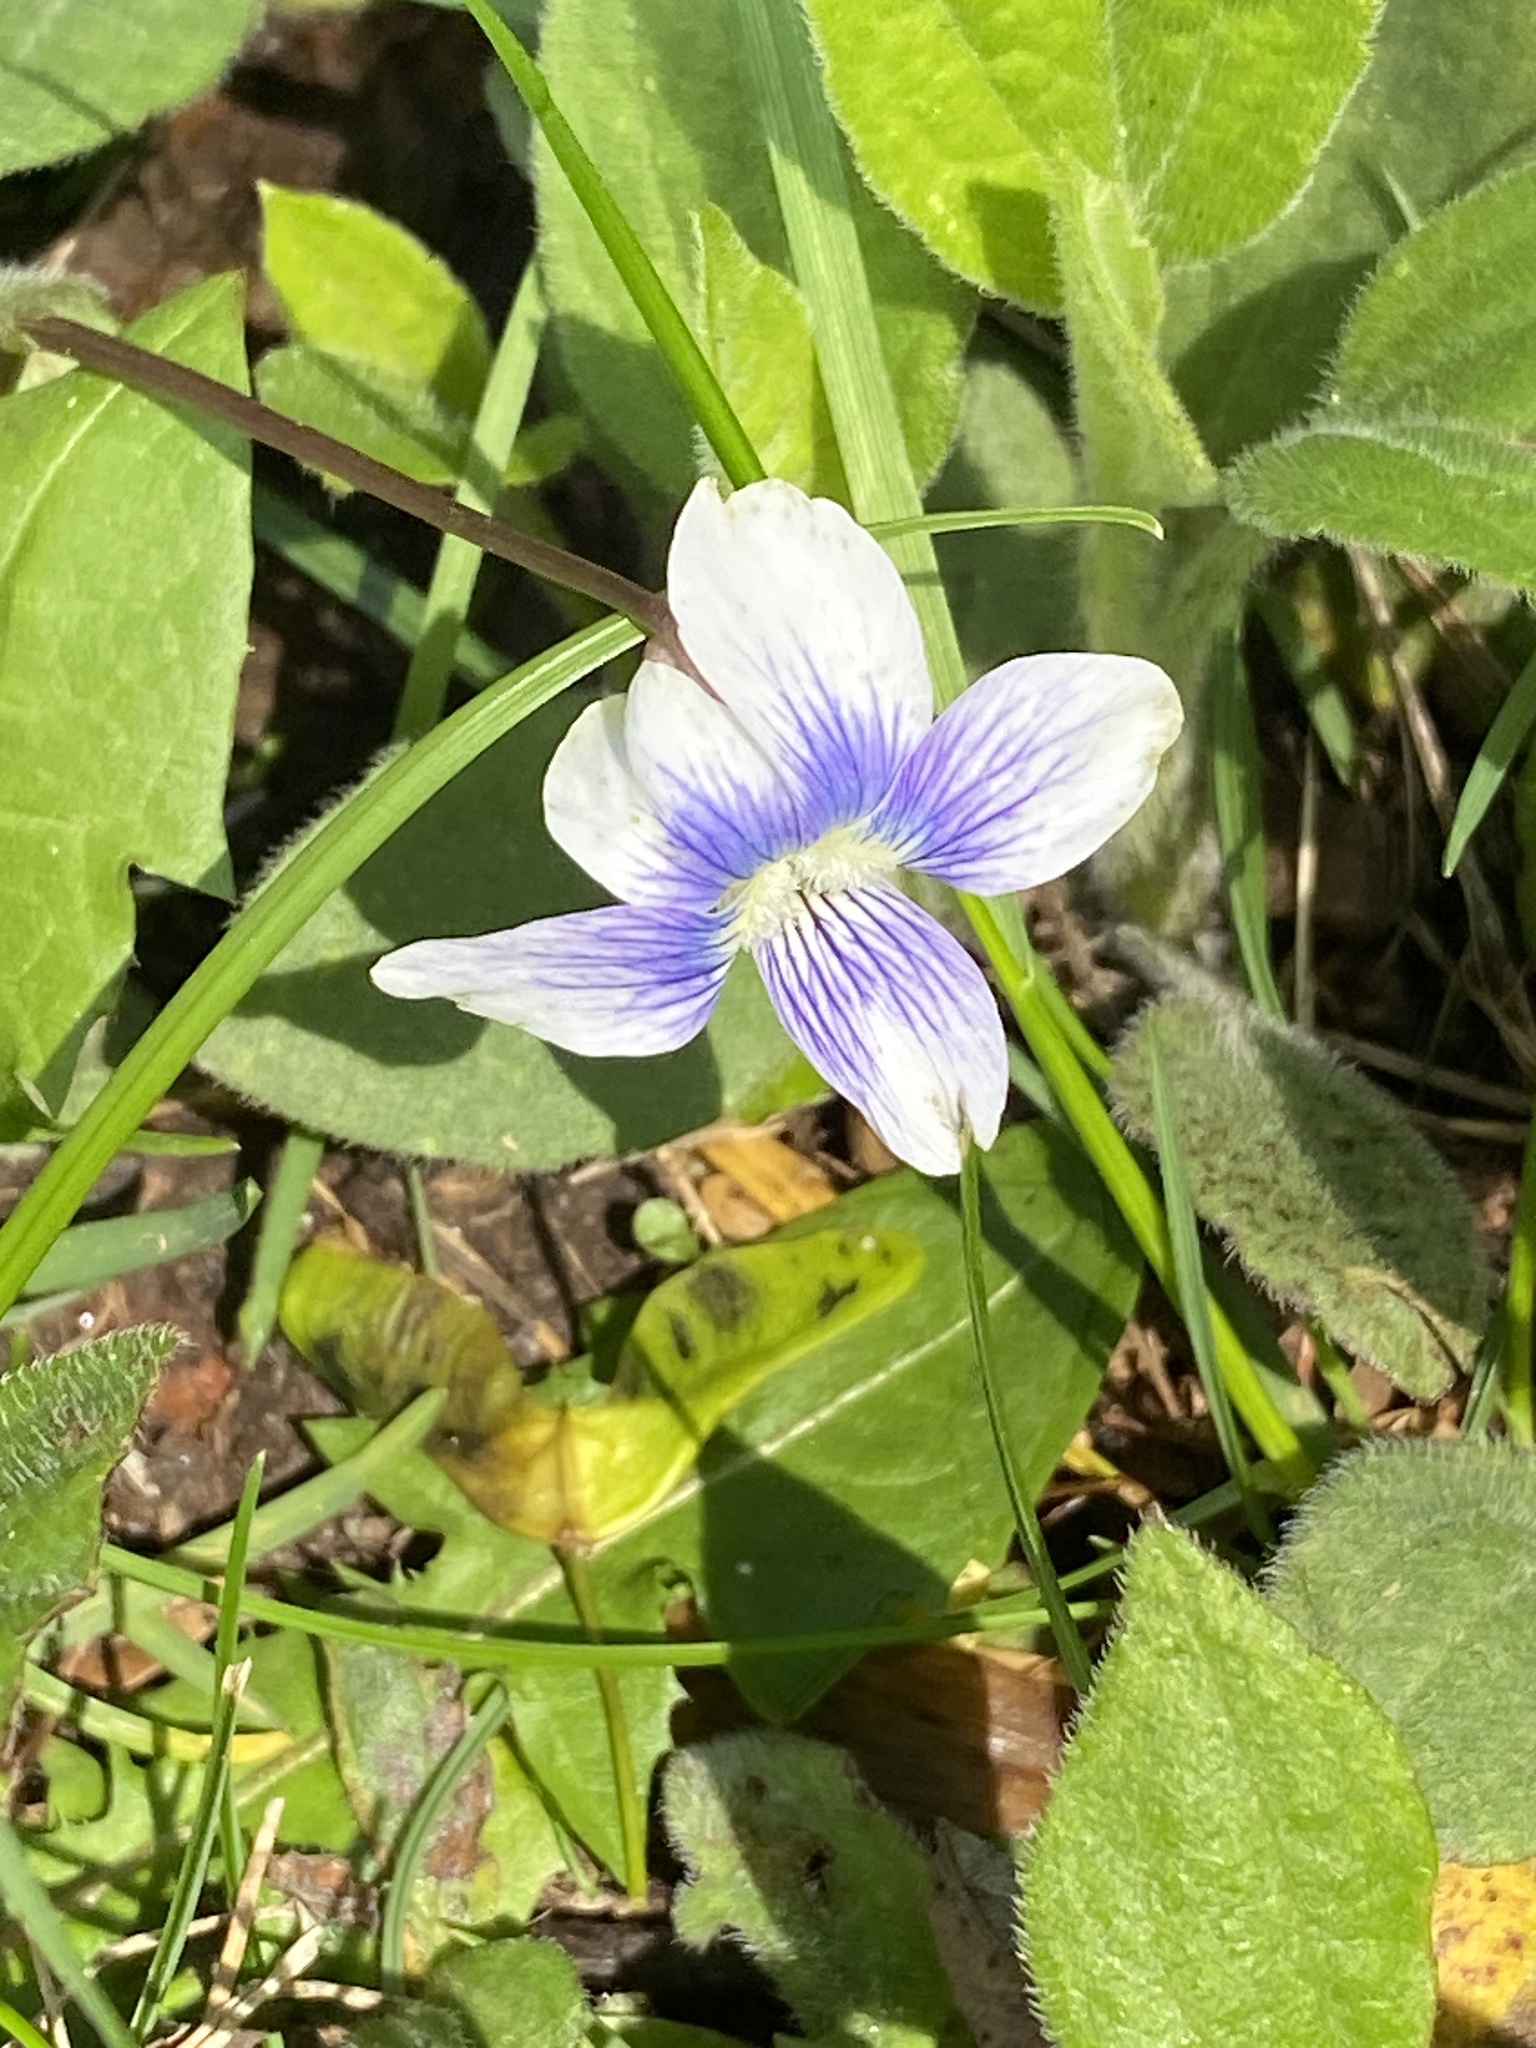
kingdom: Plantae
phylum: Tracheophyta
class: Magnoliopsida
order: Malpighiales
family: Violaceae
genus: Viola
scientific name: Viola sororia
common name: Dooryard violet
